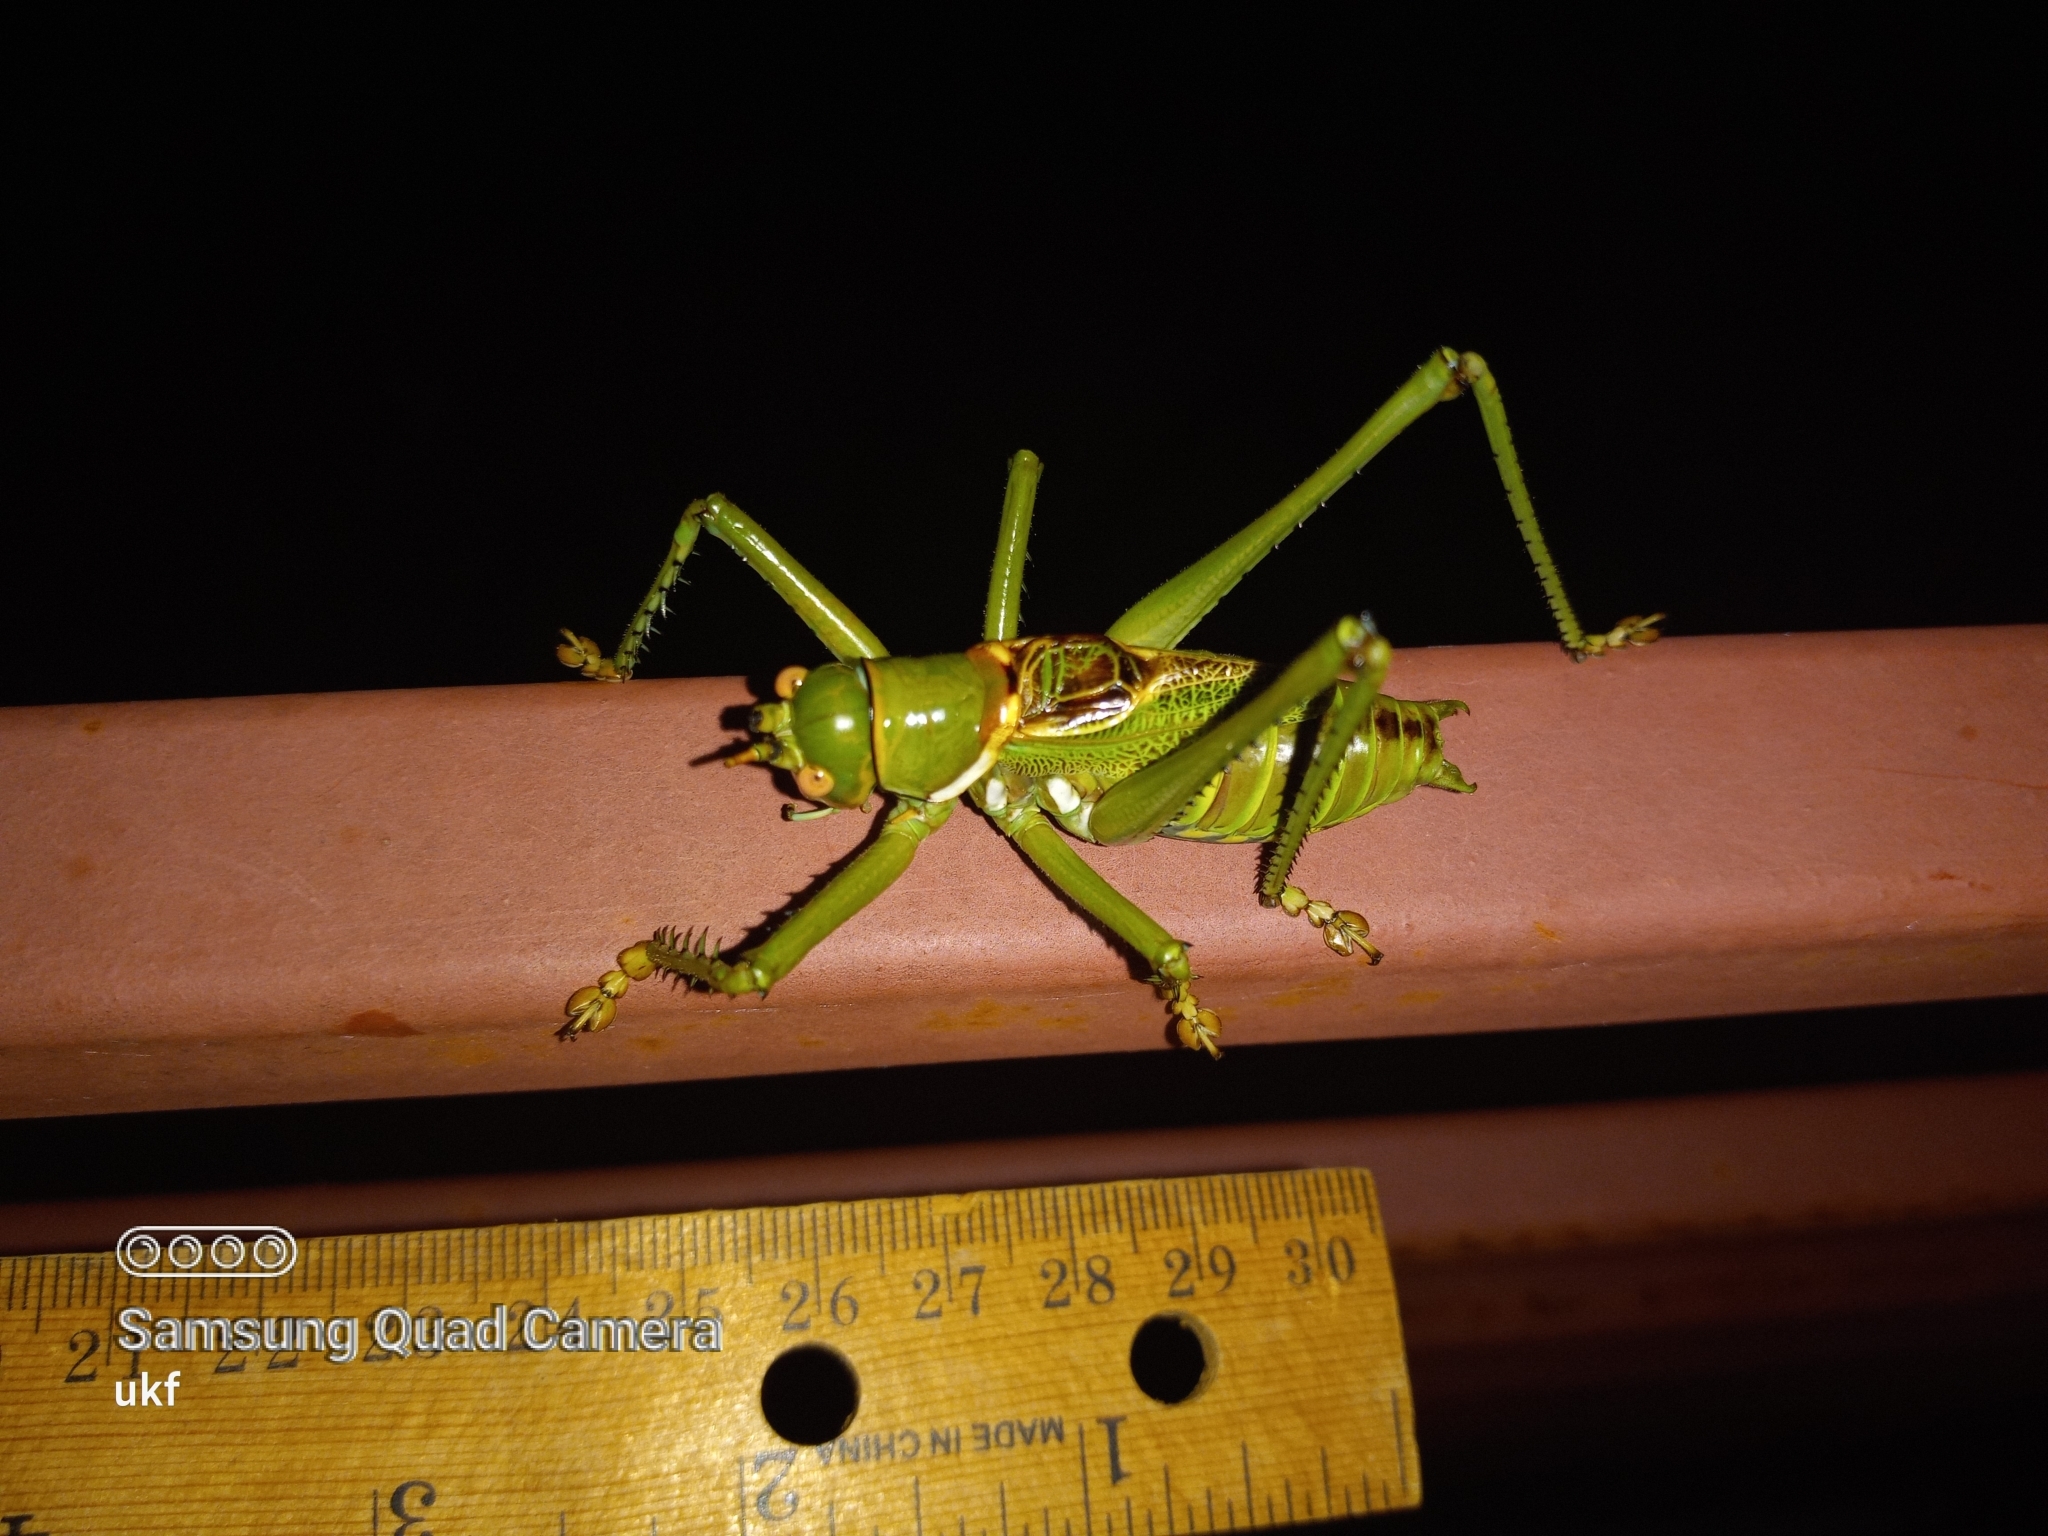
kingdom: Animalia
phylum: Arthropoda
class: Insecta
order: Orthoptera
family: Tettigoniidae
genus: Neobarrettia
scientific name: Neobarrettia spinosa
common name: Greater arid-land katydid
